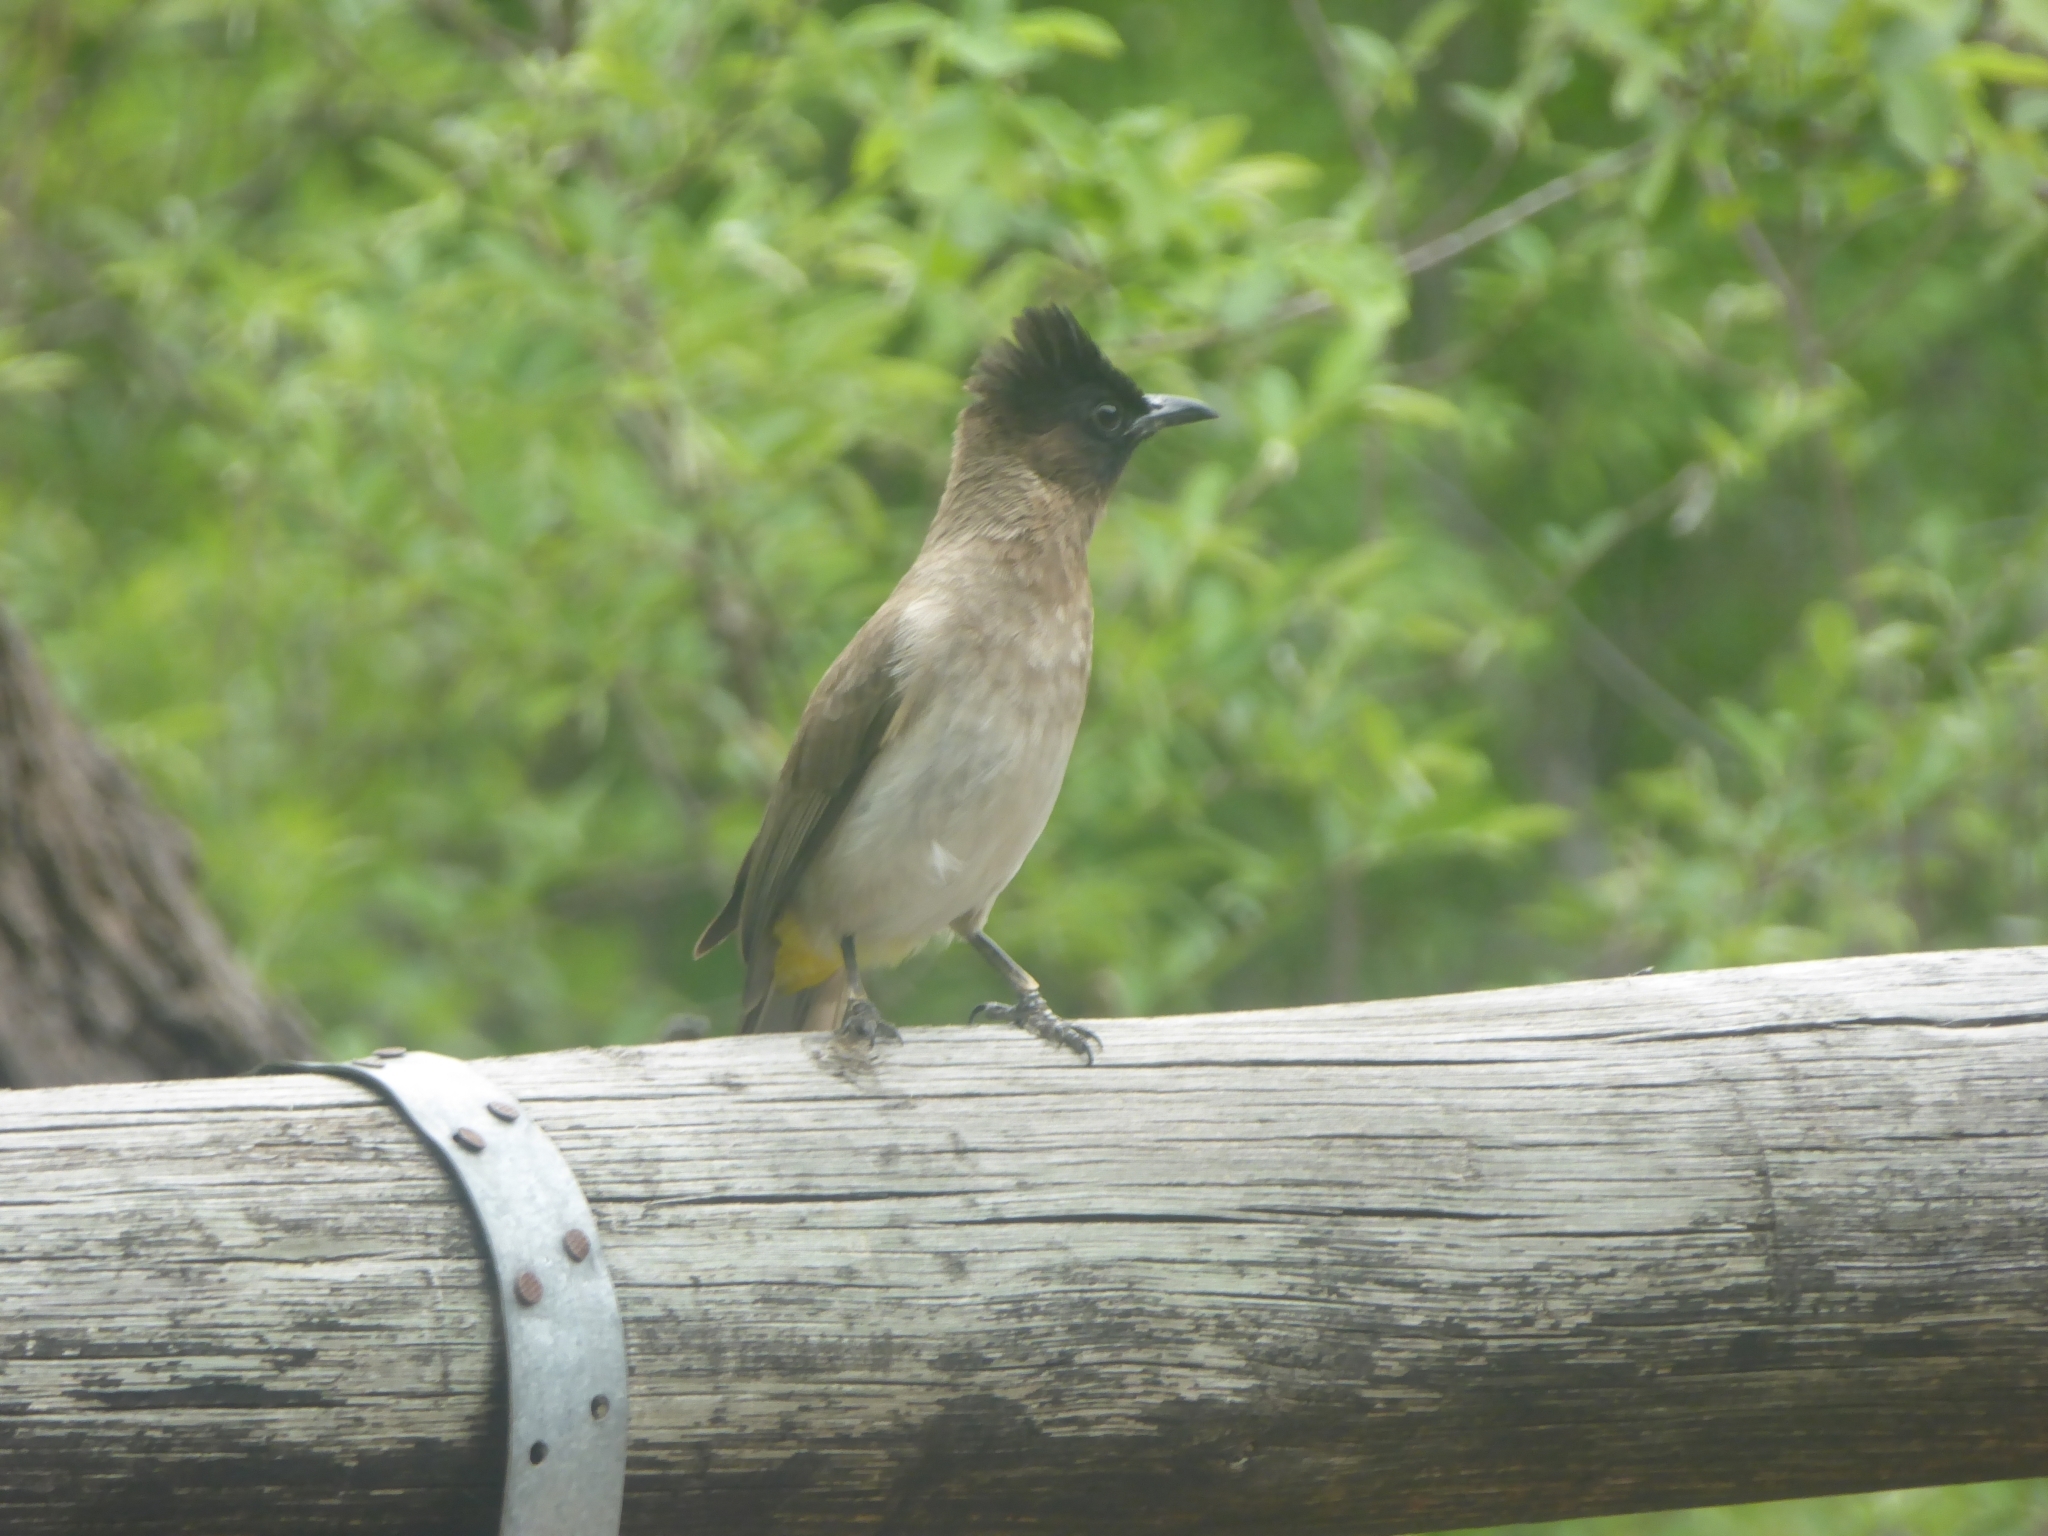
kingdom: Animalia
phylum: Chordata
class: Aves
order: Passeriformes
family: Pycnonotidae
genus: Pycnonotus
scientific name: Pycnonotus barbatus
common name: Common bulbul
